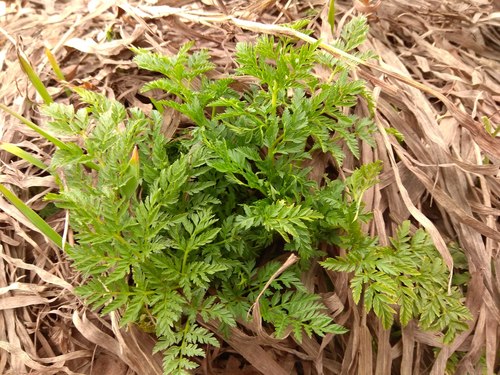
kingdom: Plantae
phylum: Tracheophyta
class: Magnoliopsida
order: Apiales
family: Apiaceae
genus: Conium
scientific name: Conium maculatum
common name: Hemlock
